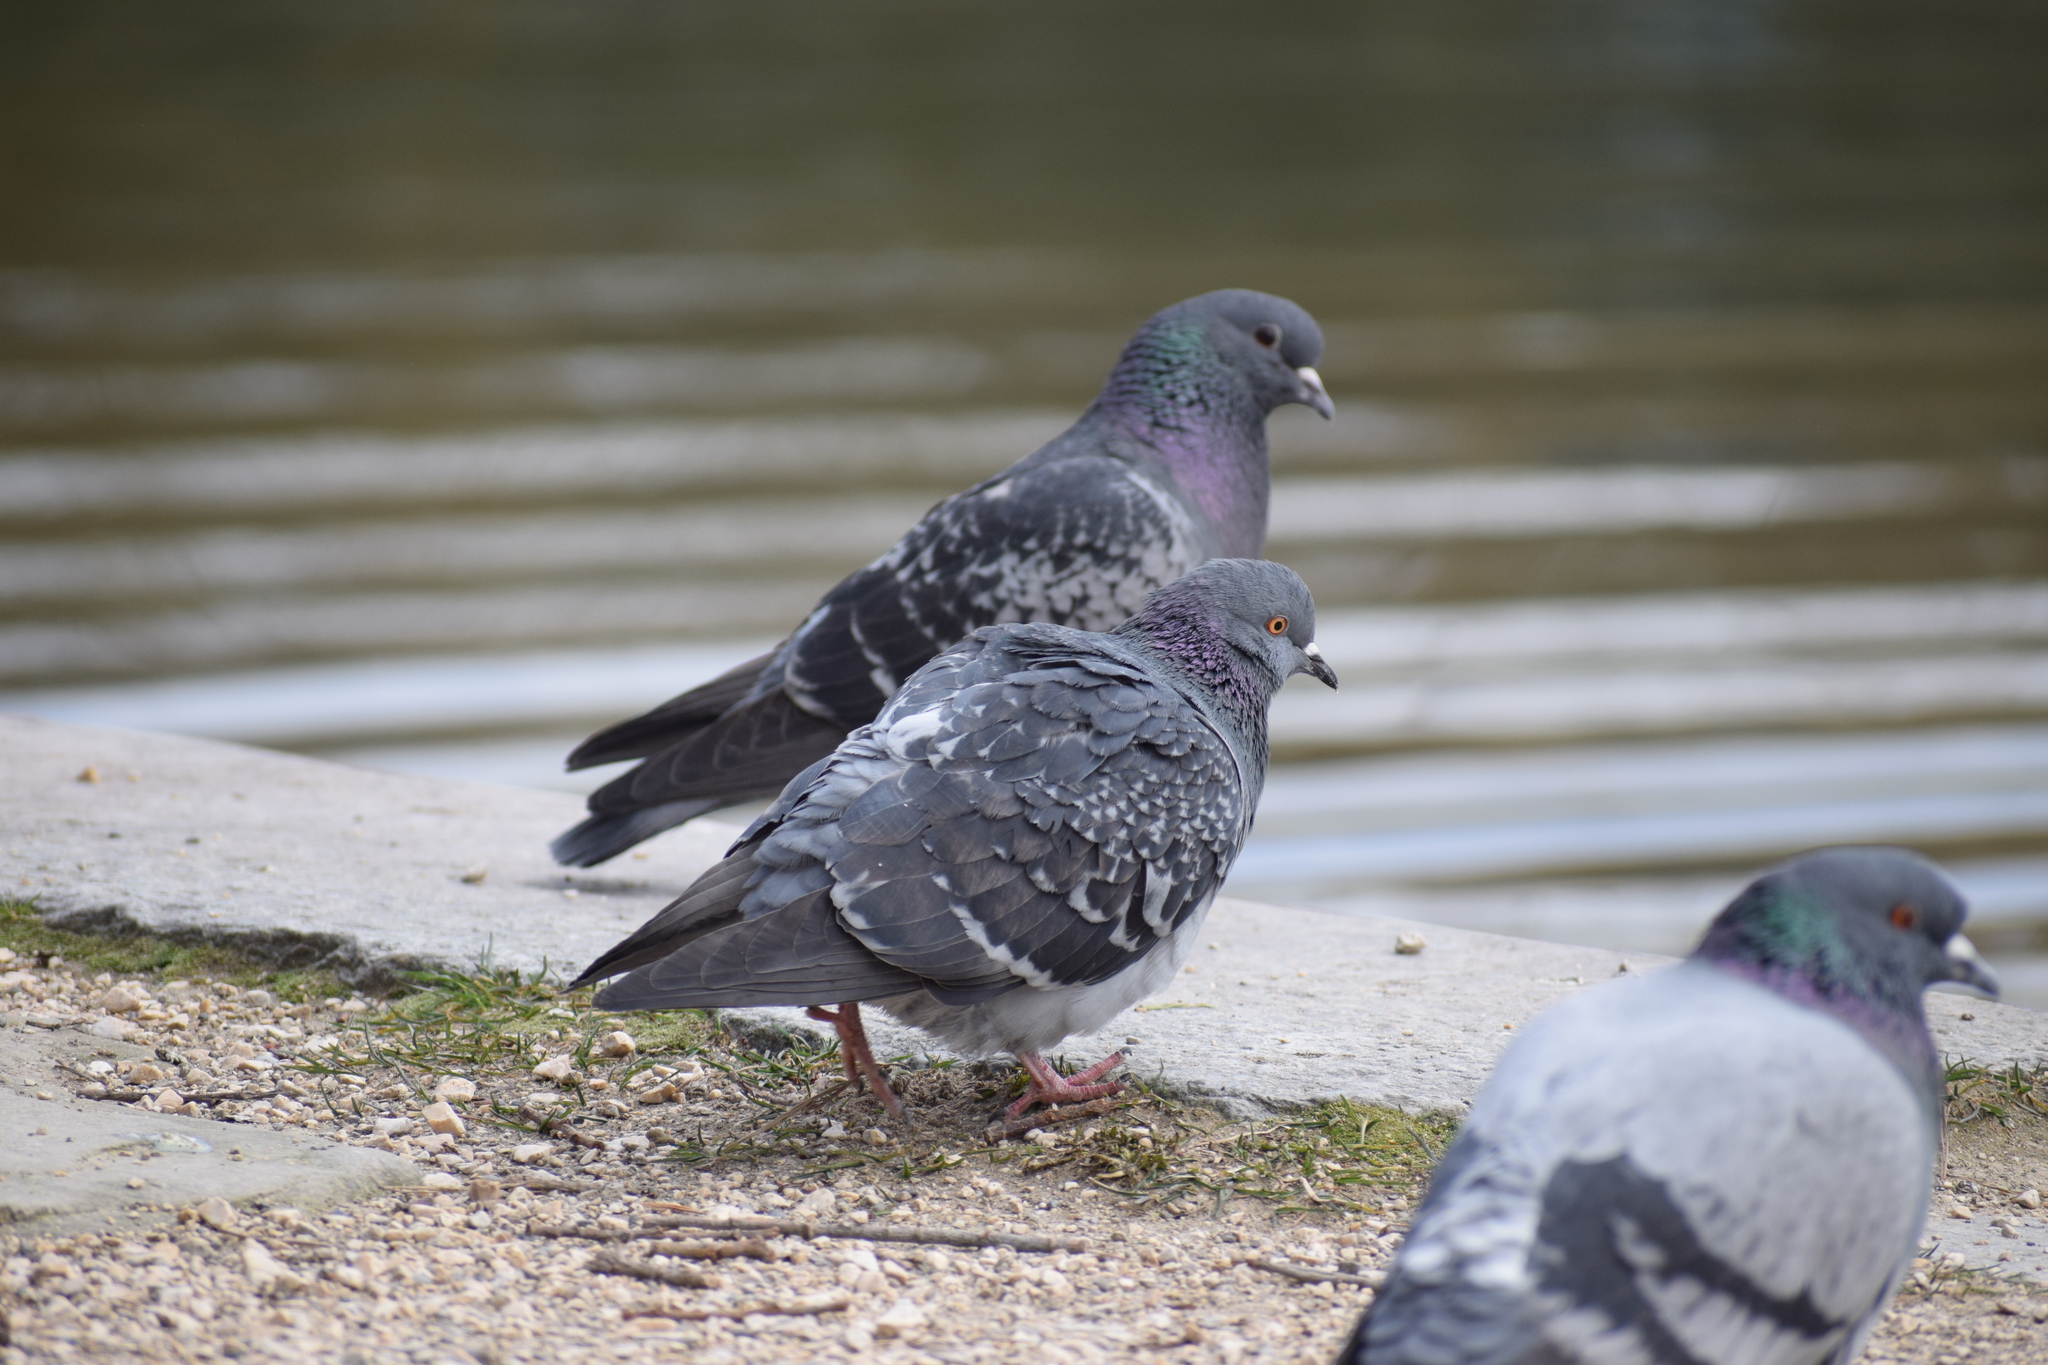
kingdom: Animalia
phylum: Chordata
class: Aves
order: Columbiformes
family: Columbidae
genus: Columba
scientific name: Columba livia
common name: Rock pigeon
